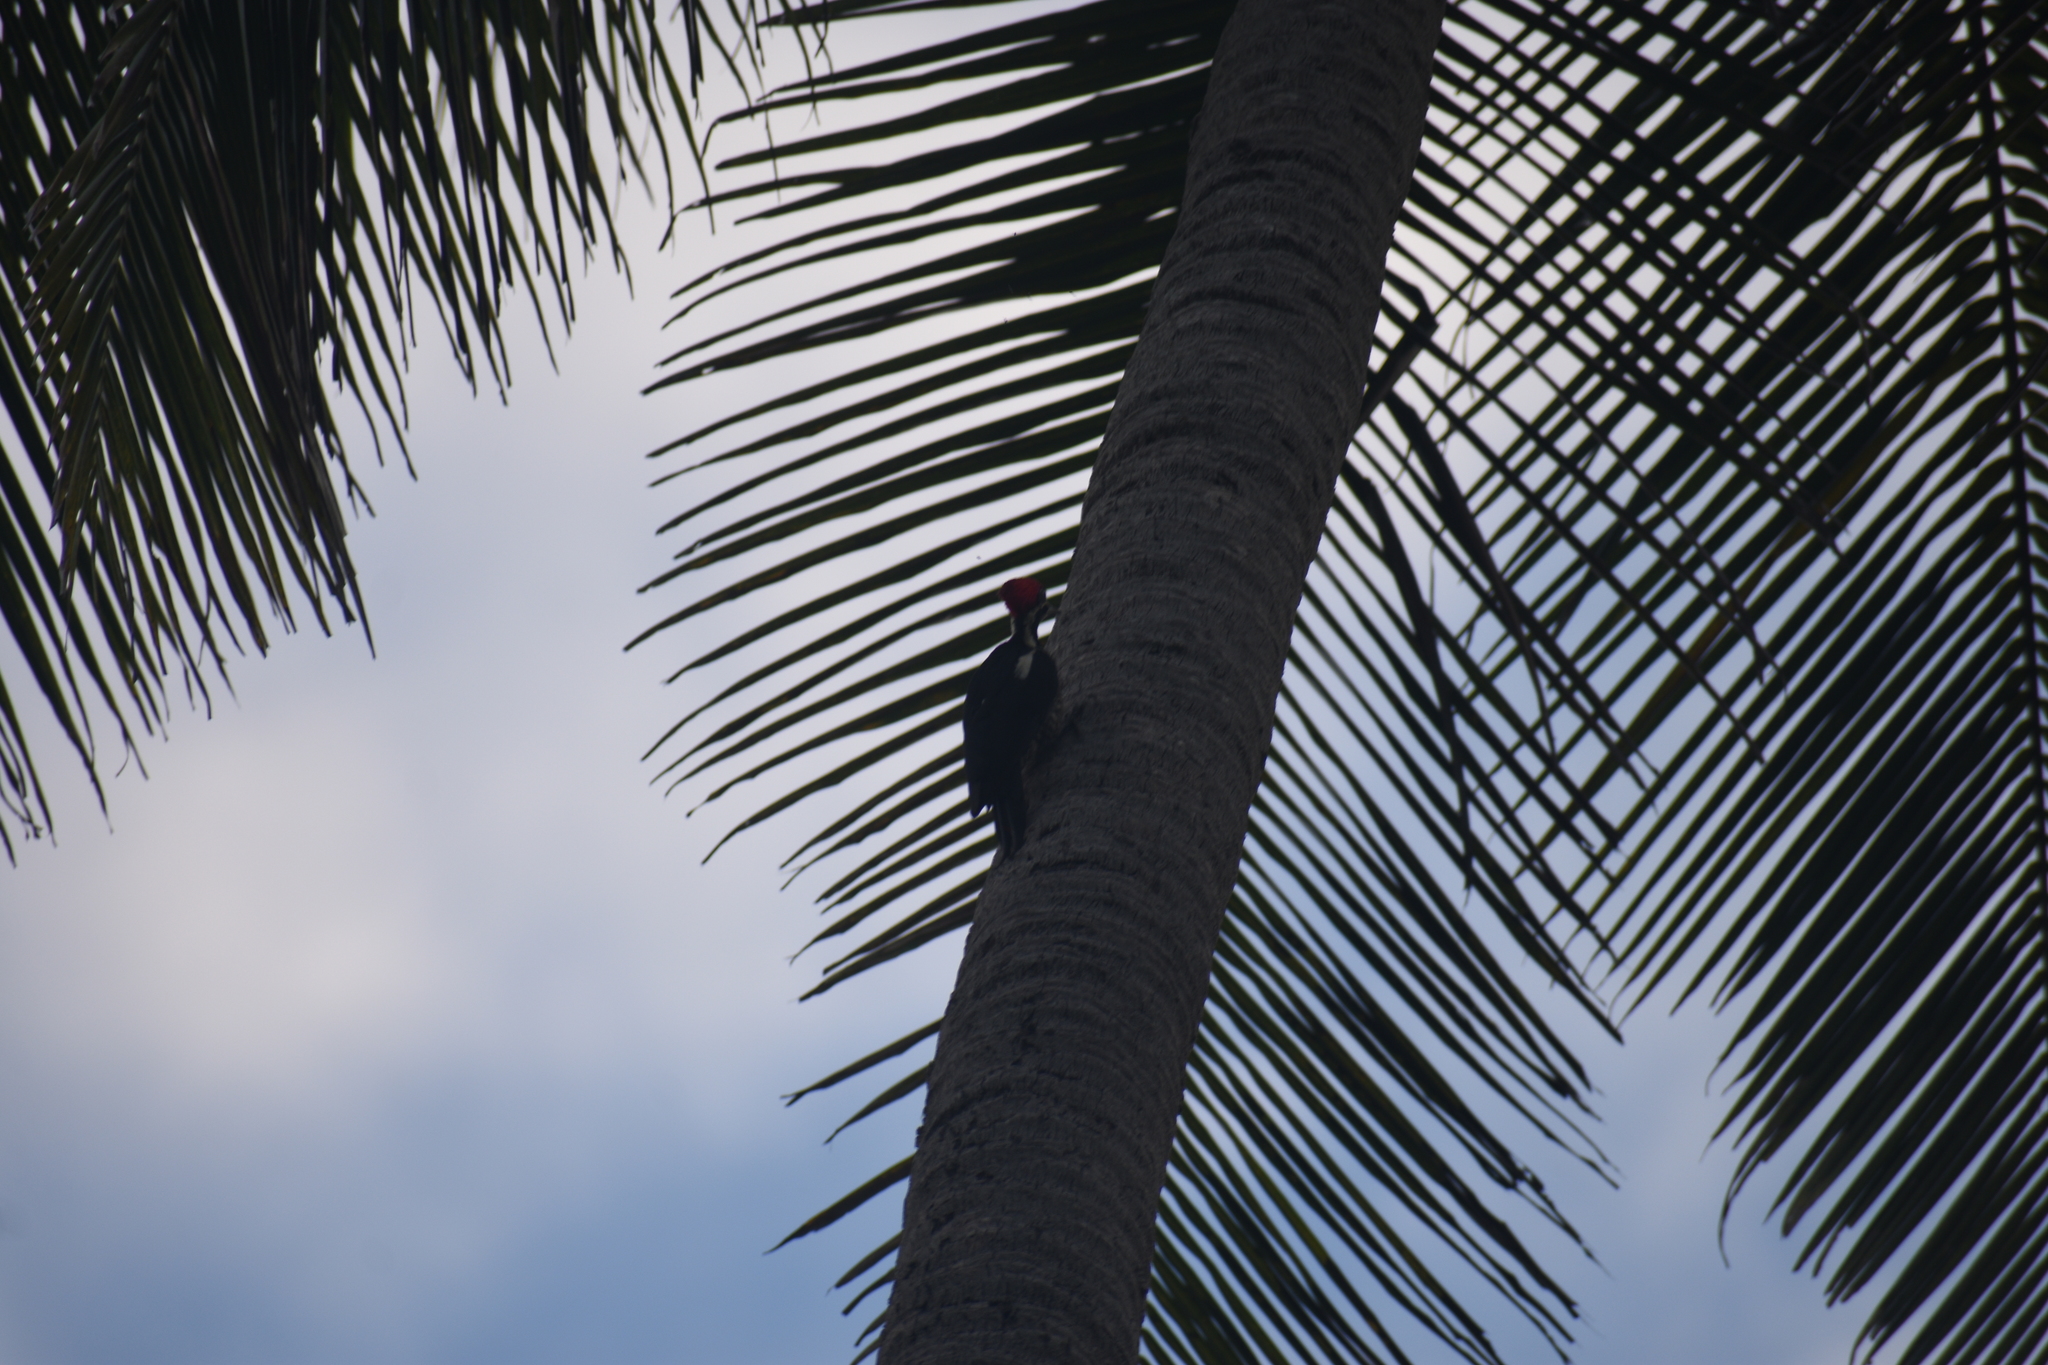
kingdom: Animalia
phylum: Chordata
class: Aves
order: Piciformes
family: Picidae
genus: Dryocopus
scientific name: Dryocopus lineatus
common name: Lineated woodpecker
